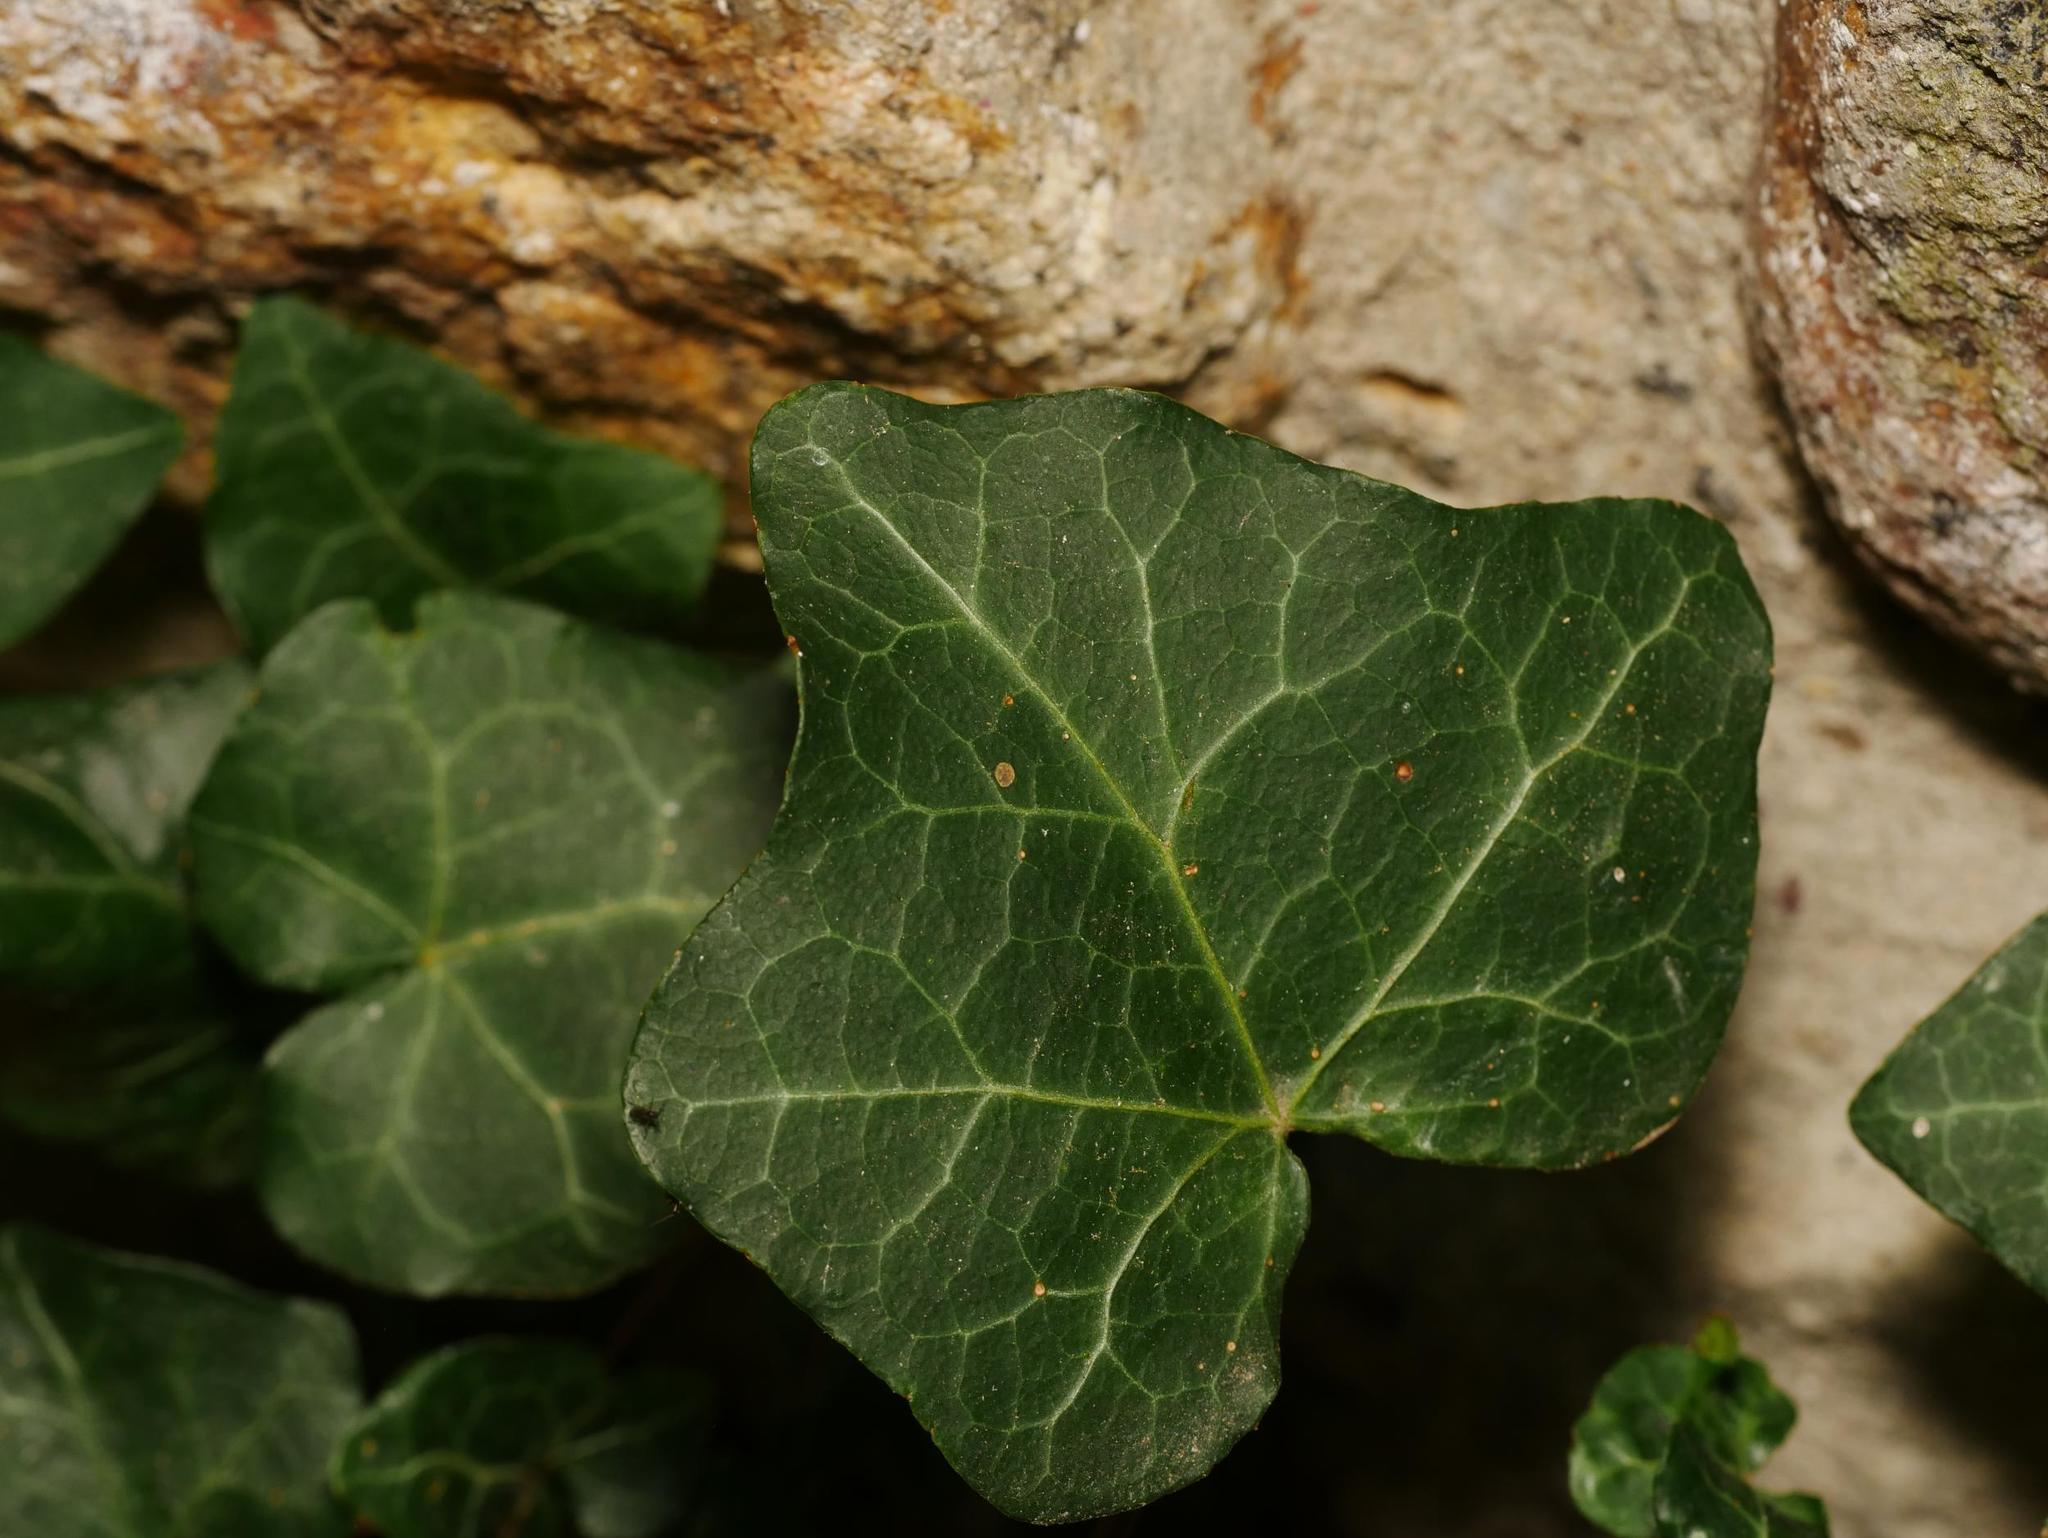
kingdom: Plantae
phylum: Tracheophyta
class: Magnoliopsida
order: Apiales
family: Araliaceae
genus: Hedera
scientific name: Hedera helix
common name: Ivy
